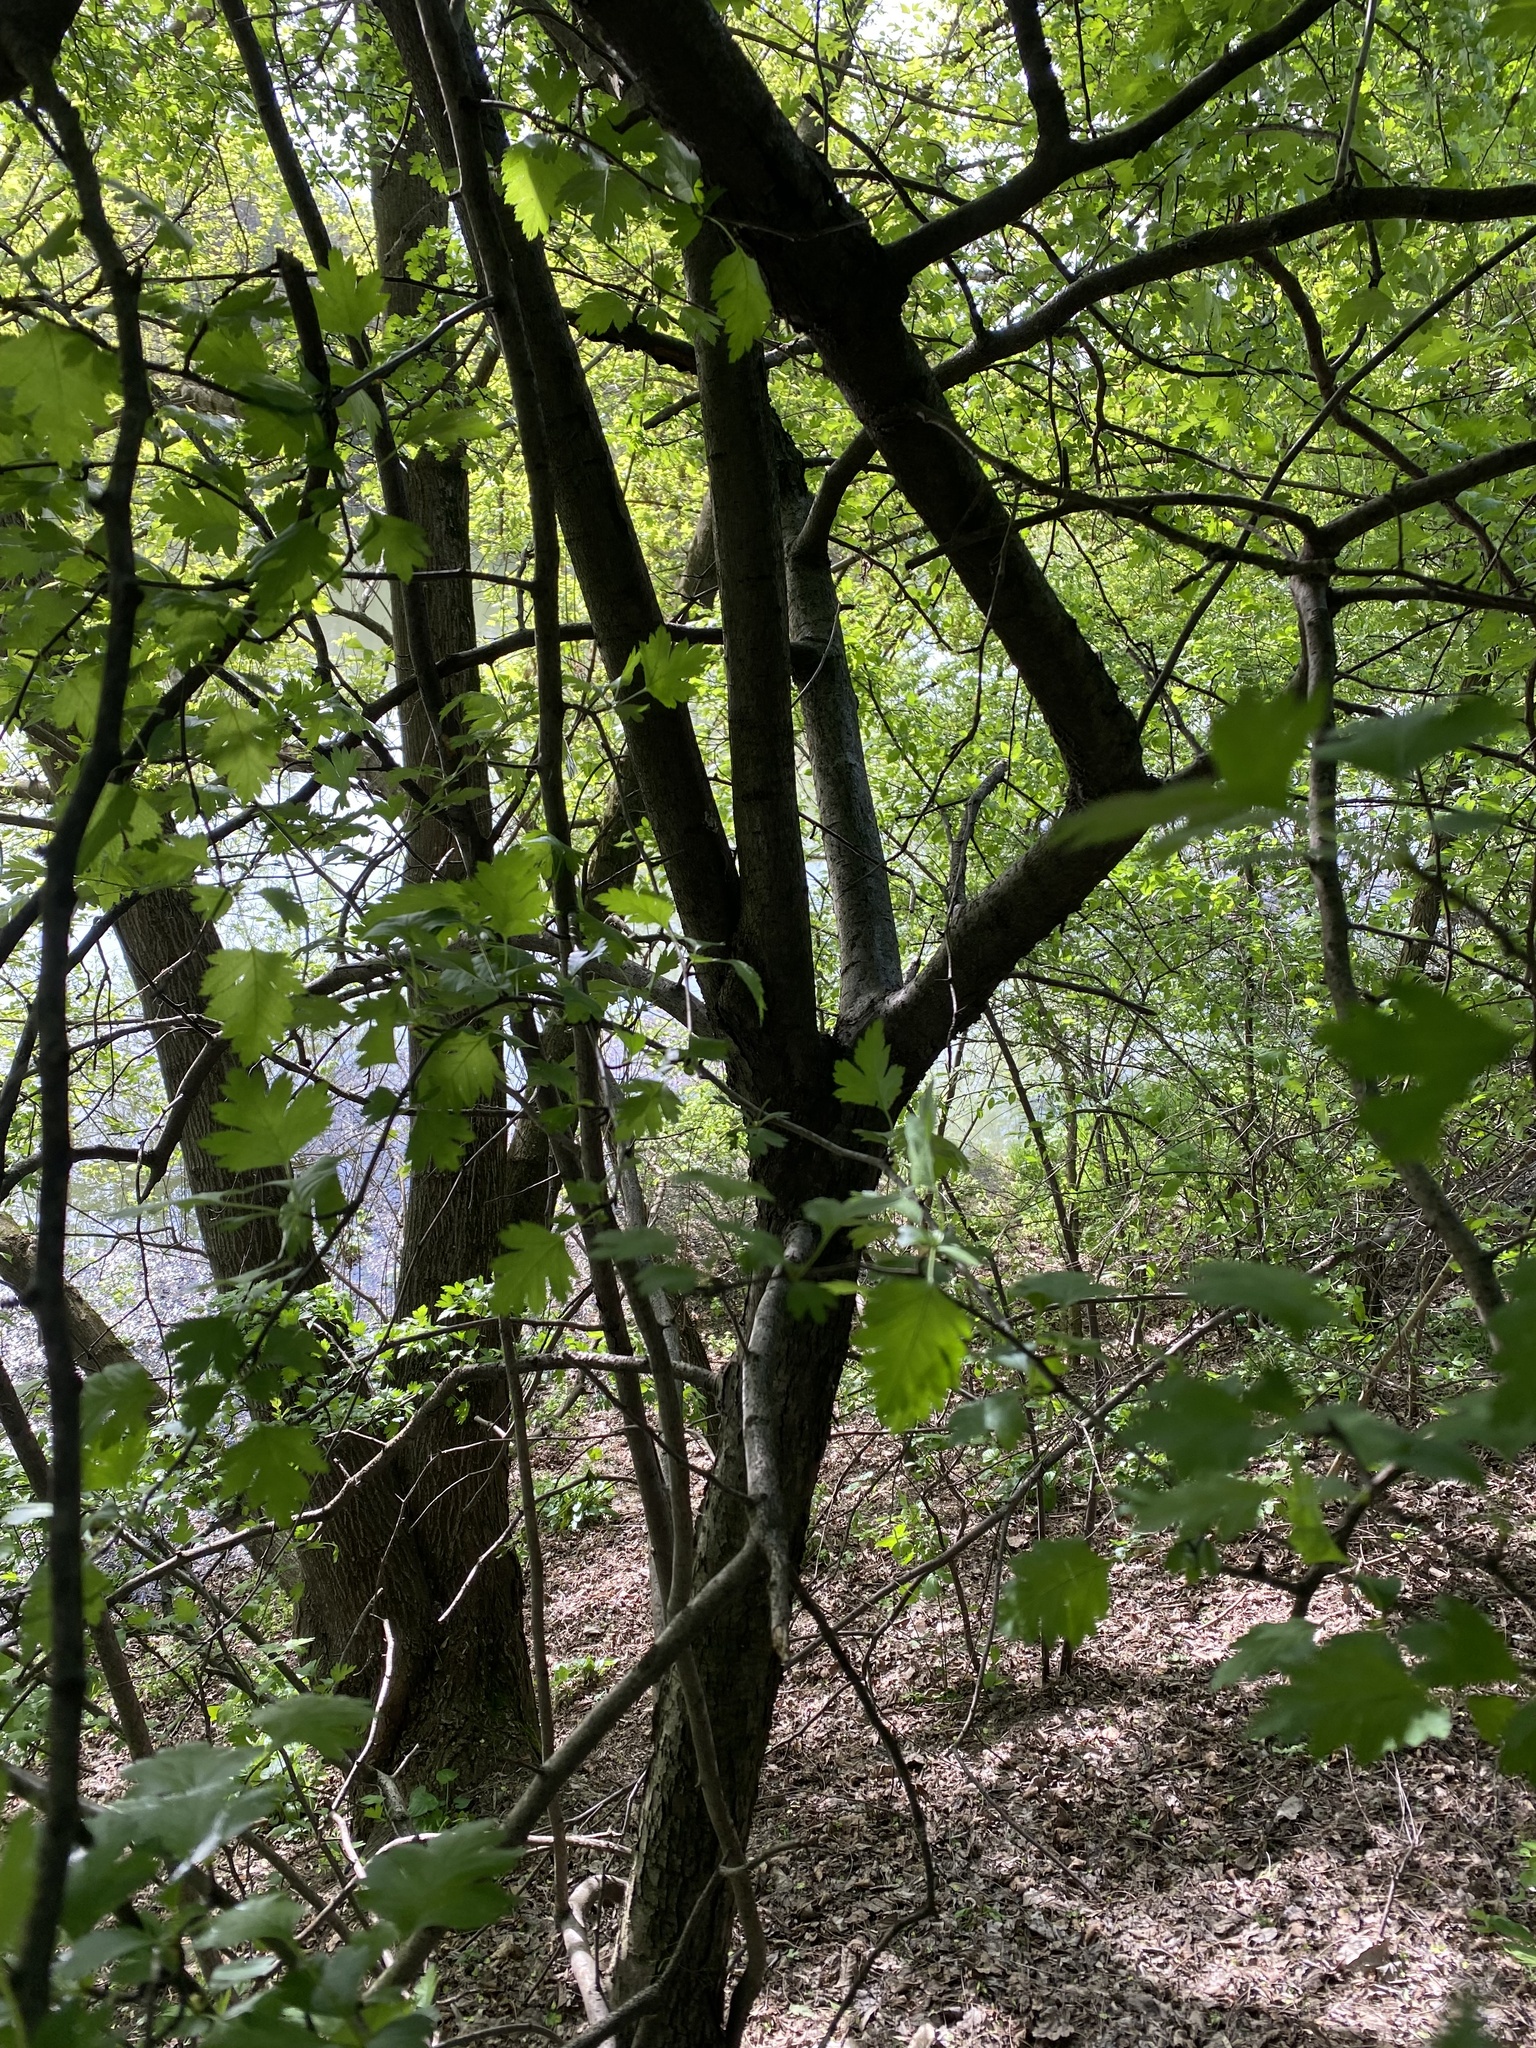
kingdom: Plantae
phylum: Tracheophyta
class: Magnoliopsida
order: Rosales
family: Rosaceae
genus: Crataegus
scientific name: Crataegus monogyna
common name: Hawthorn
